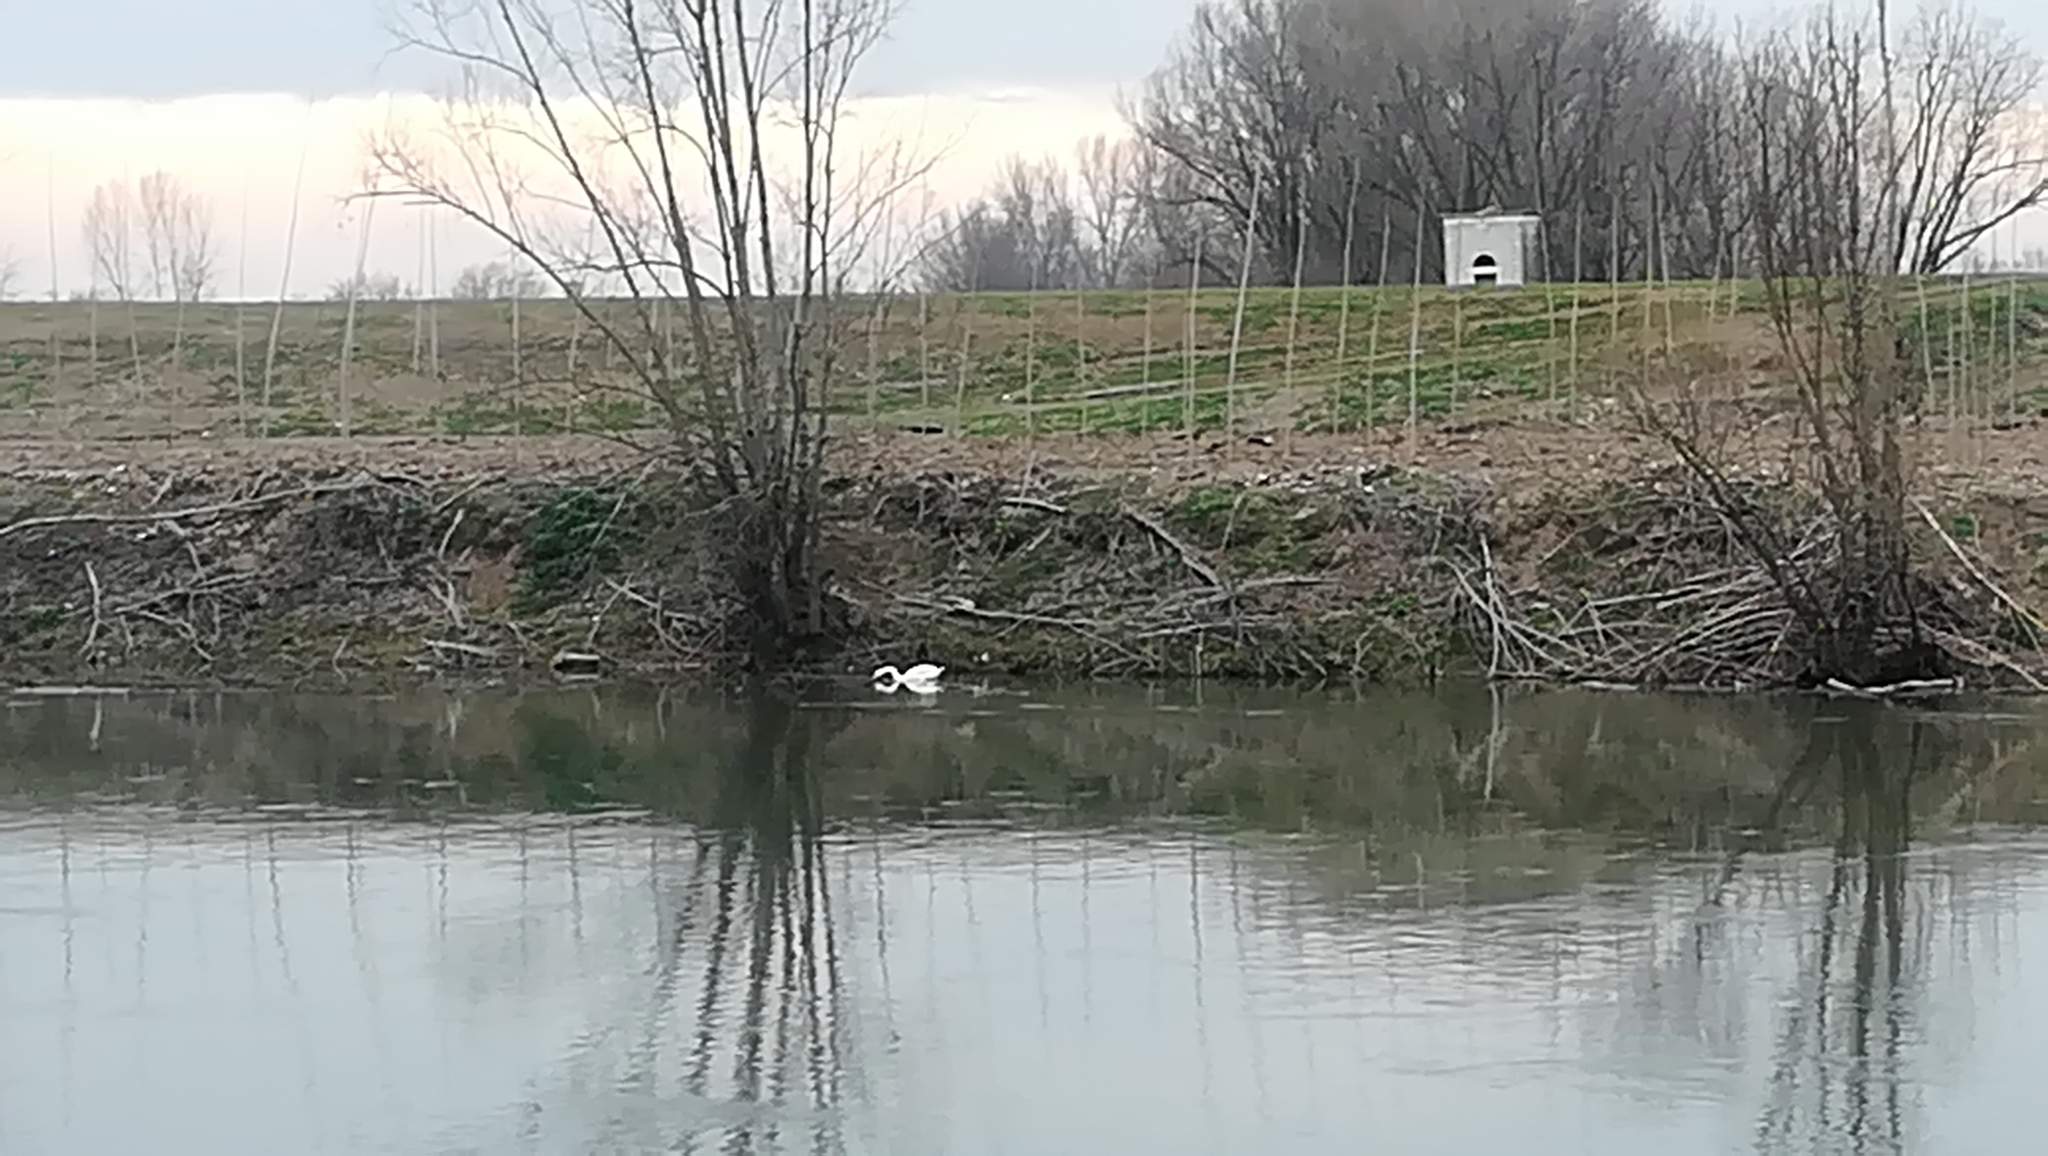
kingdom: Animalia
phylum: Chordata
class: Aves
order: Anseriformes
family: Anatidae
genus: Cygnus
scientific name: Cygnus olor
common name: Mute swan
